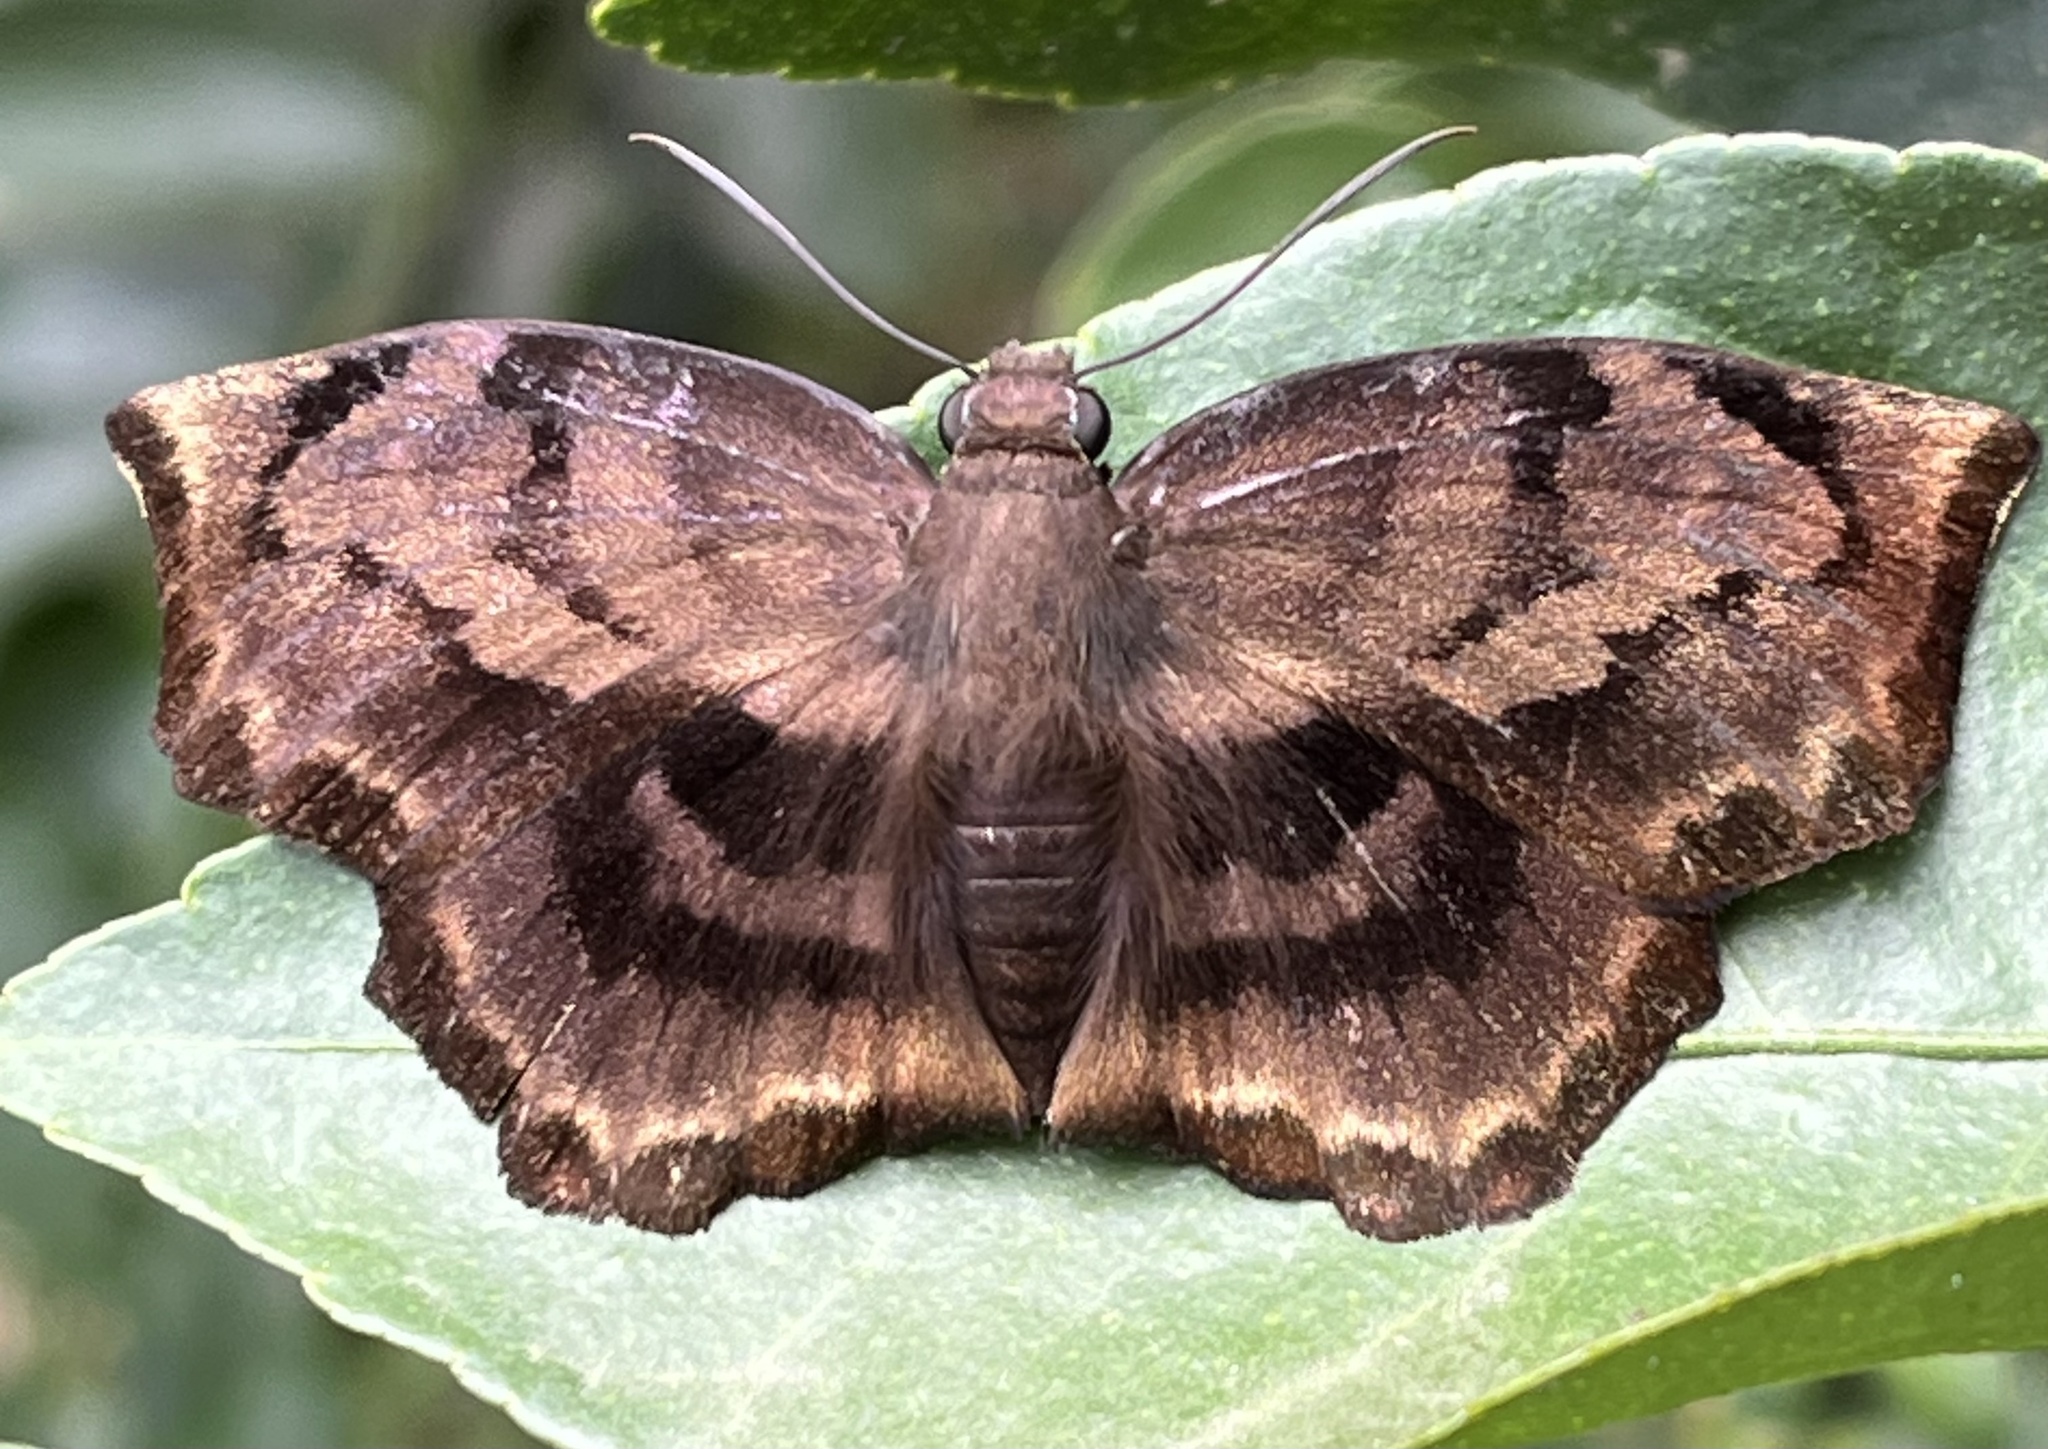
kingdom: Animalia
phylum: Arthropoda
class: Insecta
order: Lepidoptera
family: Hesperiidae
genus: Achlyodes
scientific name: Achlyodes busirus
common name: Giant sicklewing
